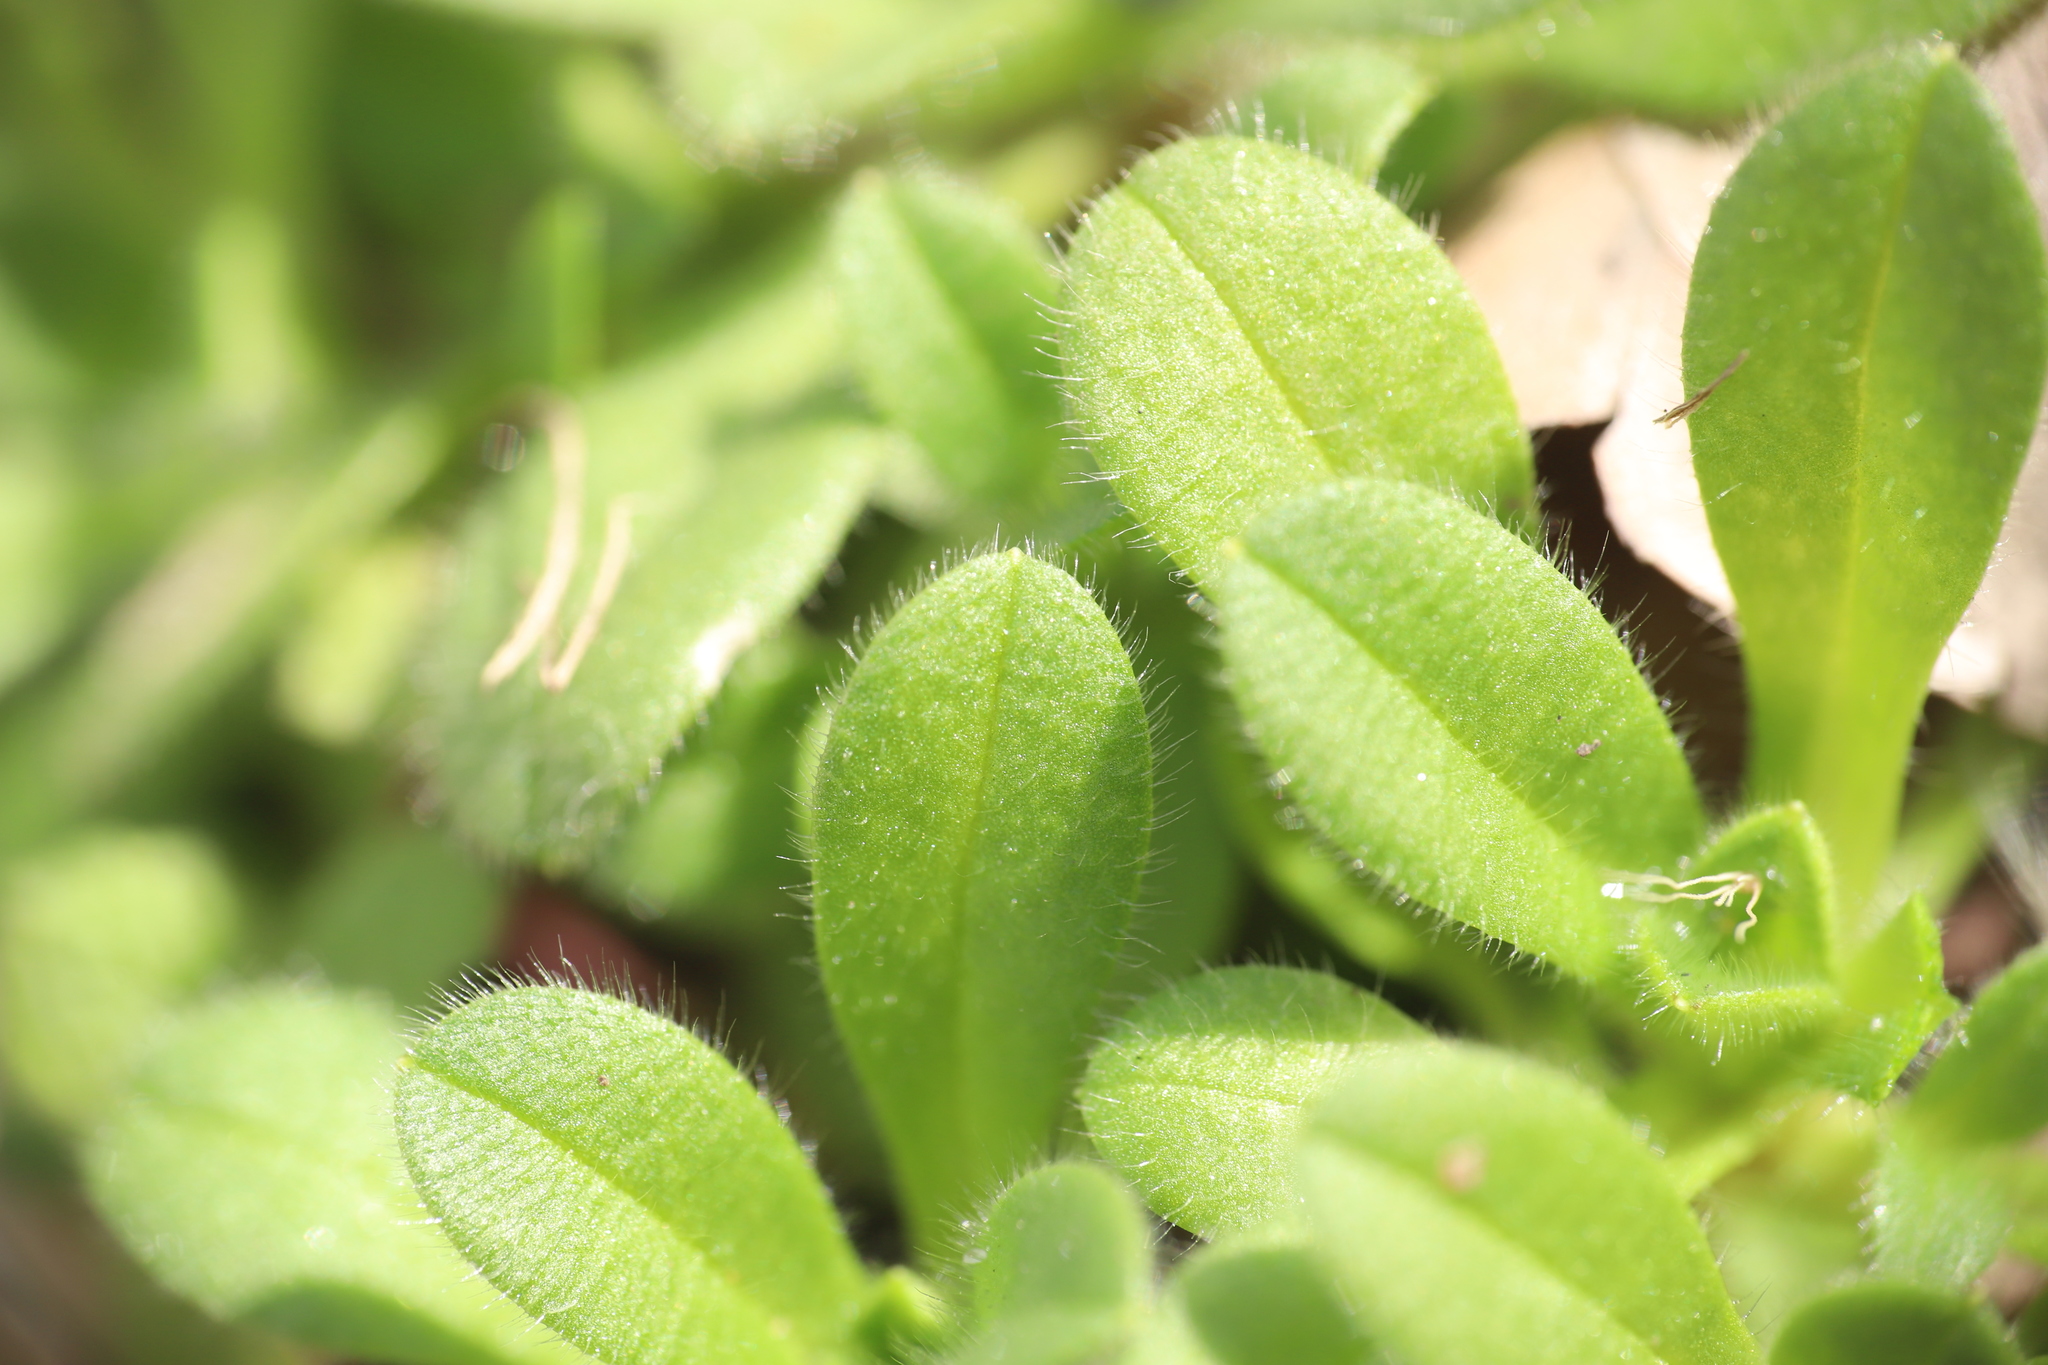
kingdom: Plantae
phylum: Tracheophyta
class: Magnoliopsida
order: Caryophyllales
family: Caryophyllaceae
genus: Cerastium
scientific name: Cerastium fontanum
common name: Common mouse-ear
